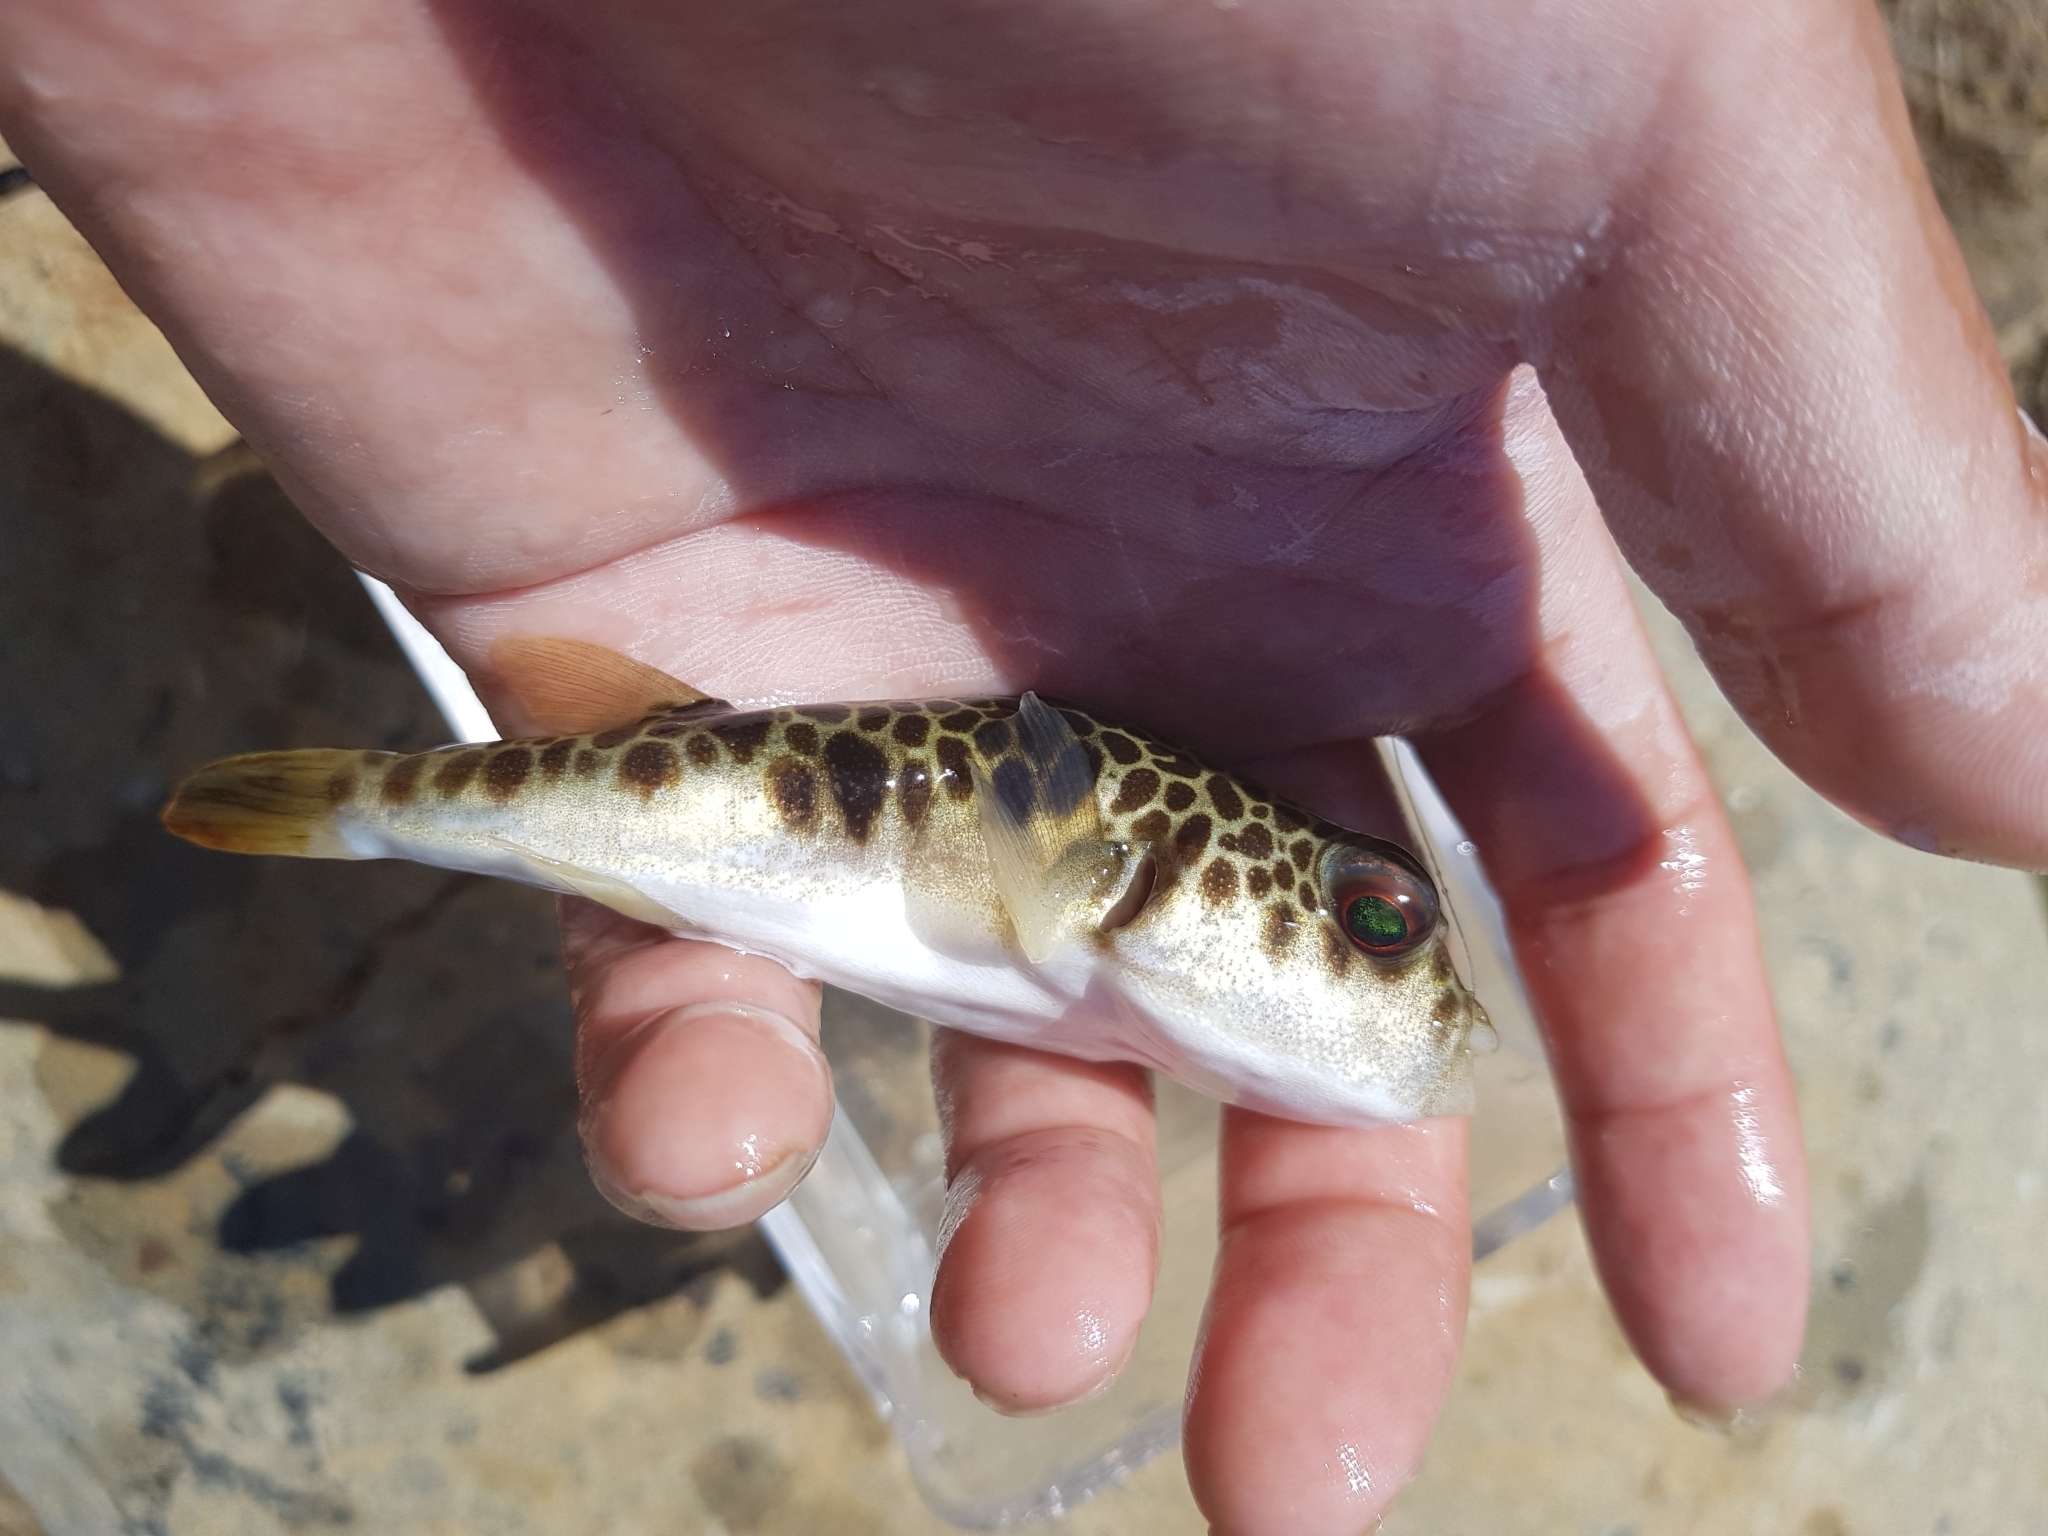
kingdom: Animalia
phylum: Chordata
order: Tetraodontiformes
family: Tetraodontidae
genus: Tetractenos
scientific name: Tetractenos glaber
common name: Smooth toadfish
